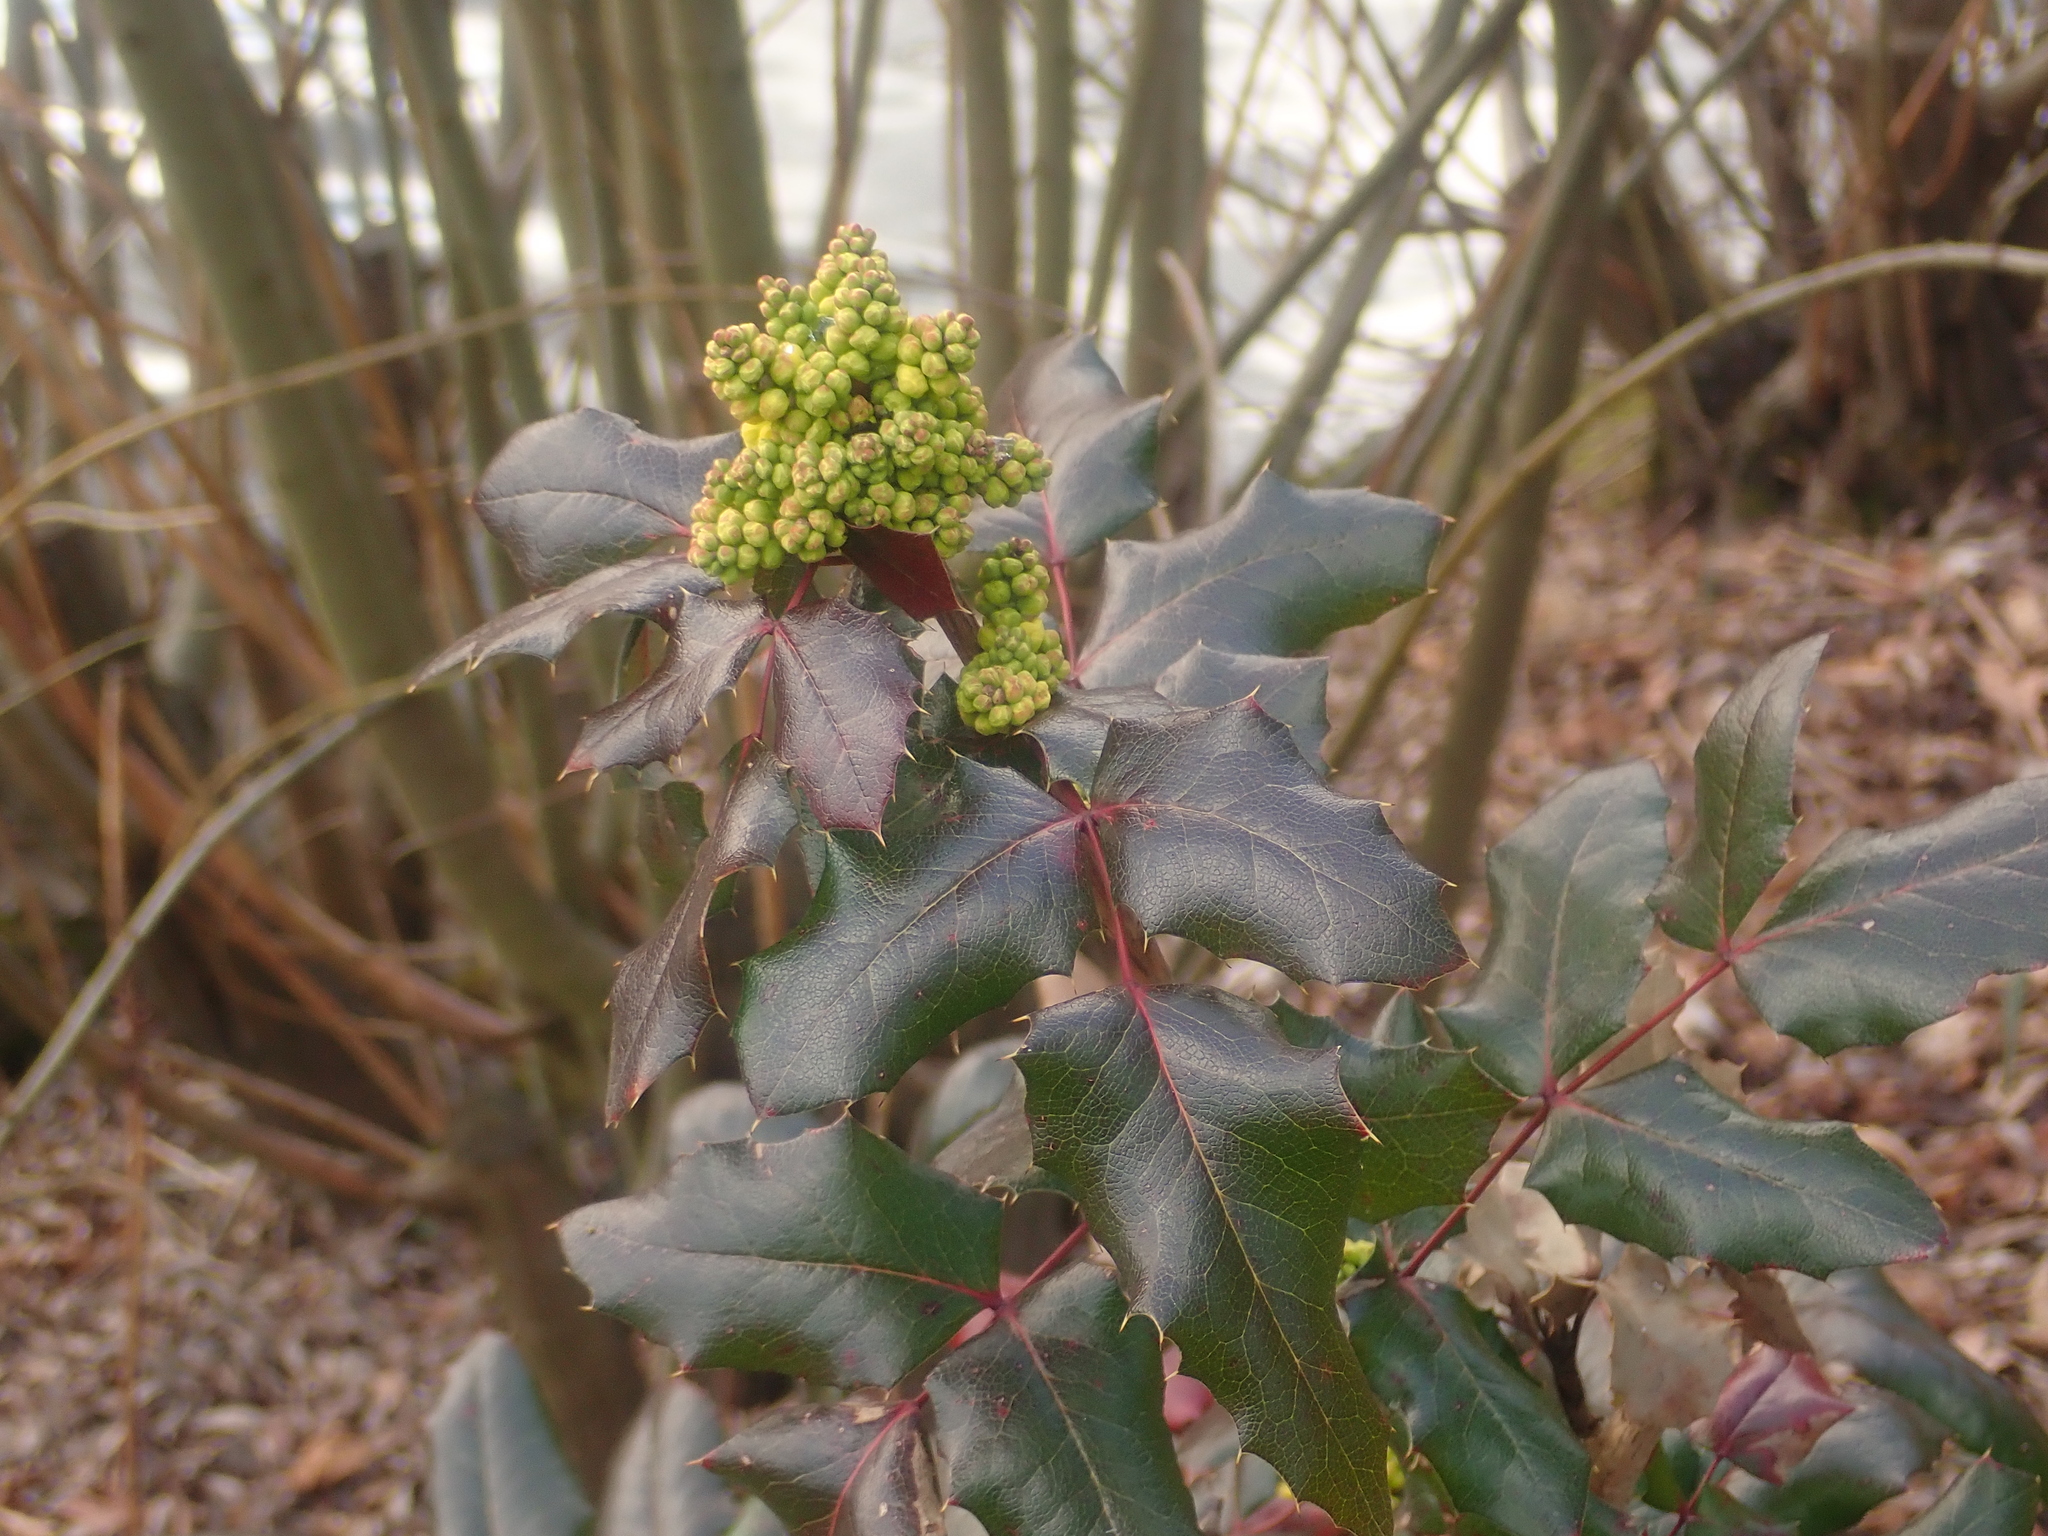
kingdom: Plantae
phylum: Tracheophyta
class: Magnoliopsida
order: Ranunculales
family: Berberidaceae
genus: Mahonia
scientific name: Mahonia aquifolium
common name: Oregon-grape
